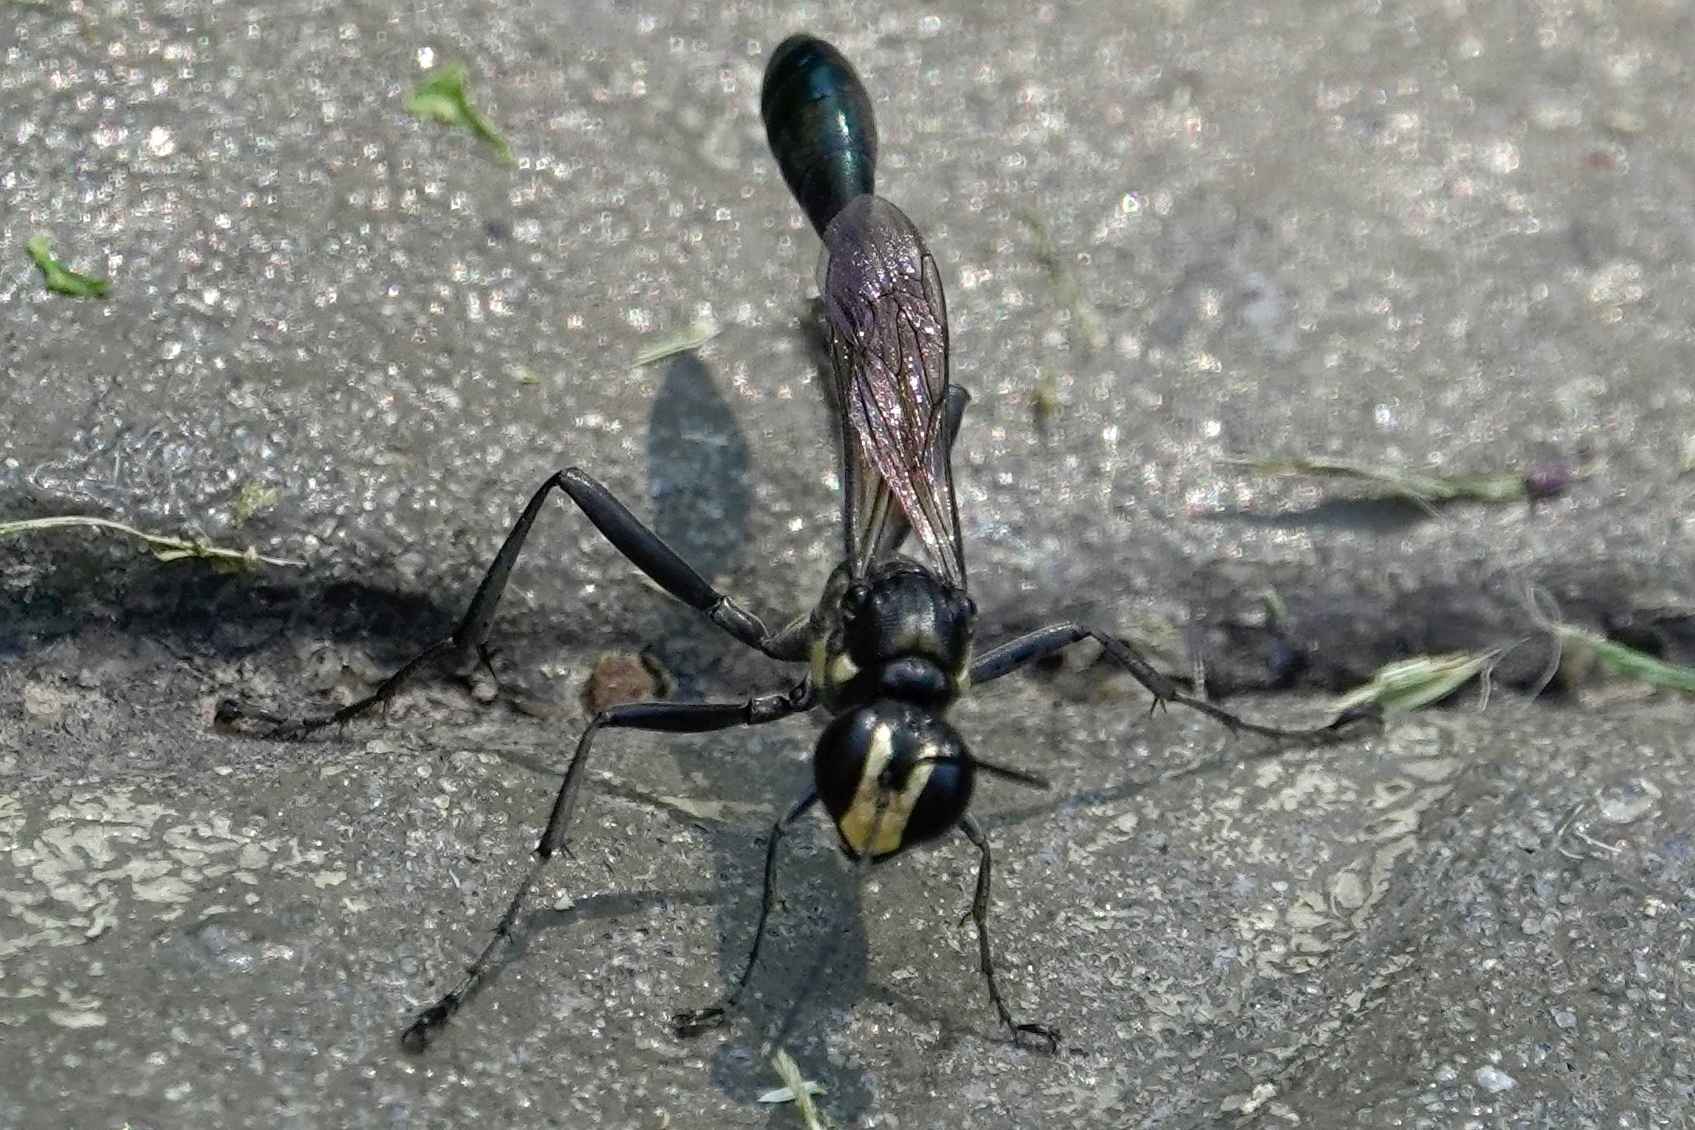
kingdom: Animalia
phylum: Arthropoda
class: Insecta
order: Hymenoptera
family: Sphecidae
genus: Eremnophila
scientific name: Eremnophila aureonotata
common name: Gold-marked thread-waisted wasp
